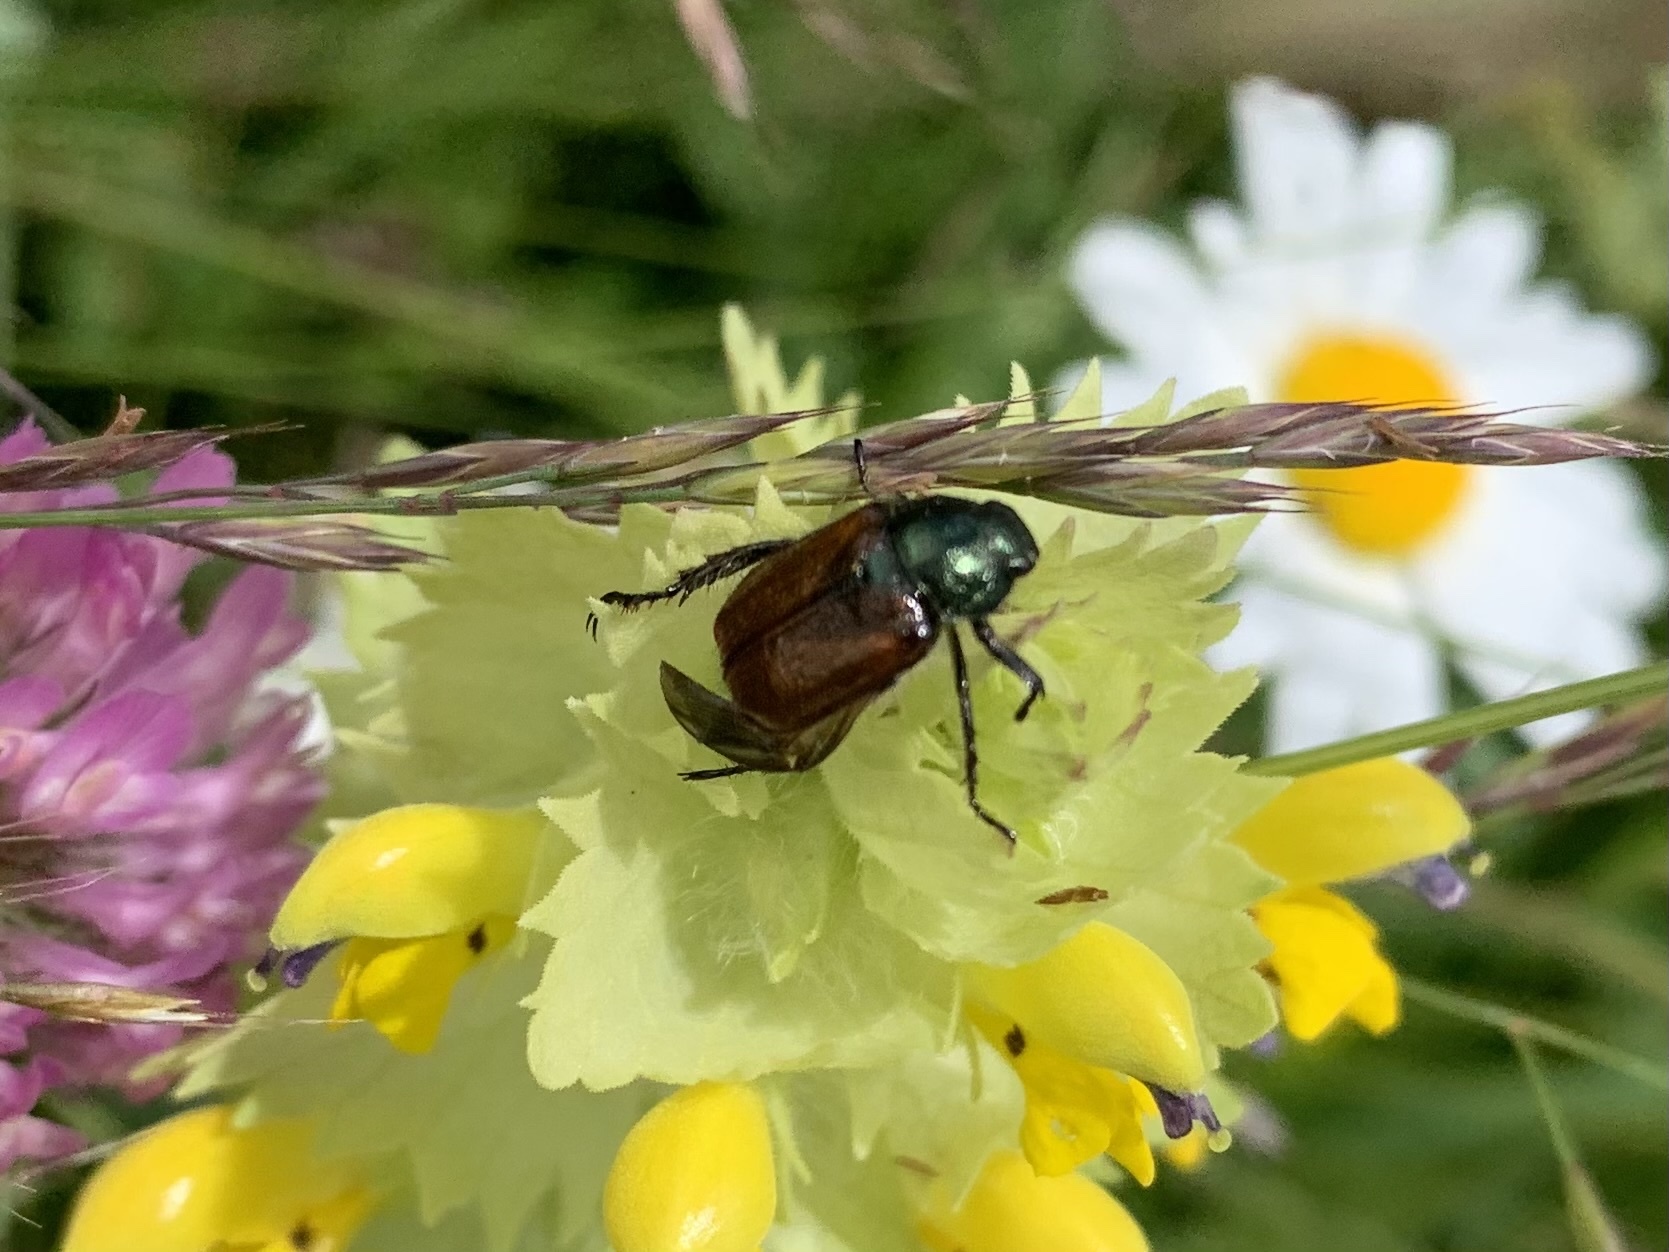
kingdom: Animalia
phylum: Arthropoda
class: Insecta
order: Coleoptera
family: Scarabaeidae
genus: Phyllopertha
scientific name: Phyllopertha horticola
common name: Garden chafer
